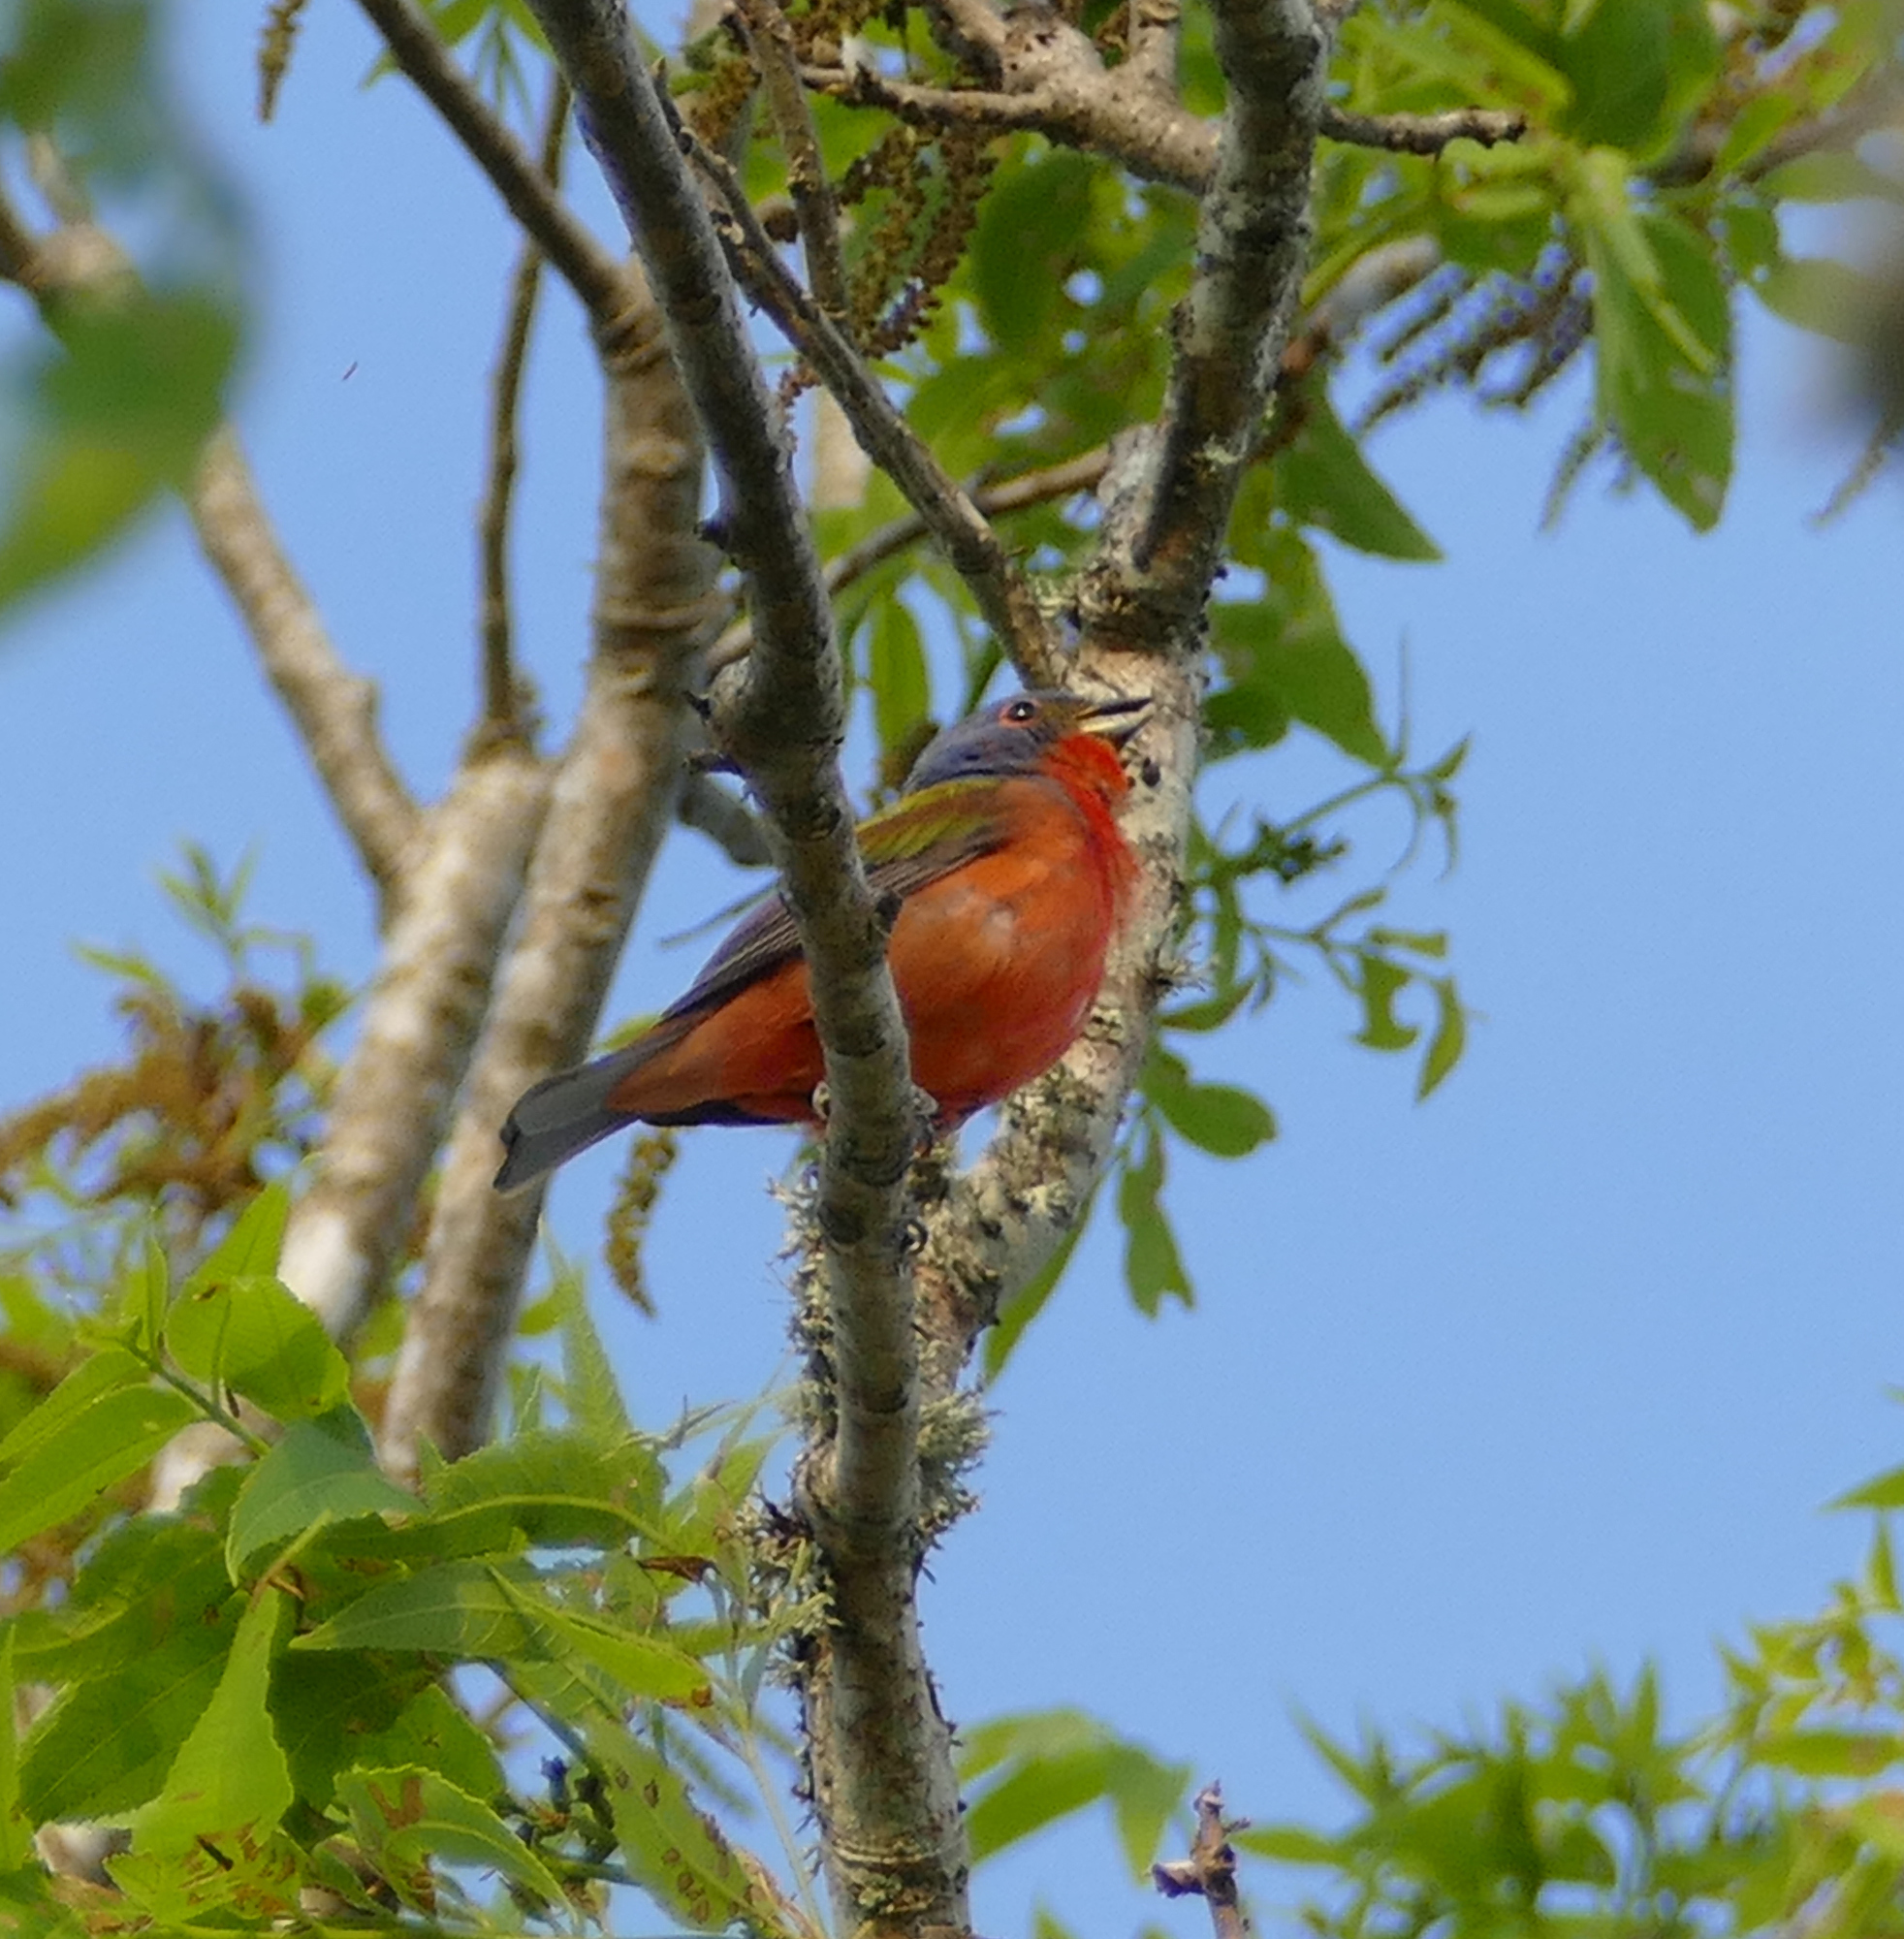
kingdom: Animalia
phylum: Chordata
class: Aves
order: Passeriformes
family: Cardinalidae
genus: Passerina
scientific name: Passerina ciris
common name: Painted bunting
